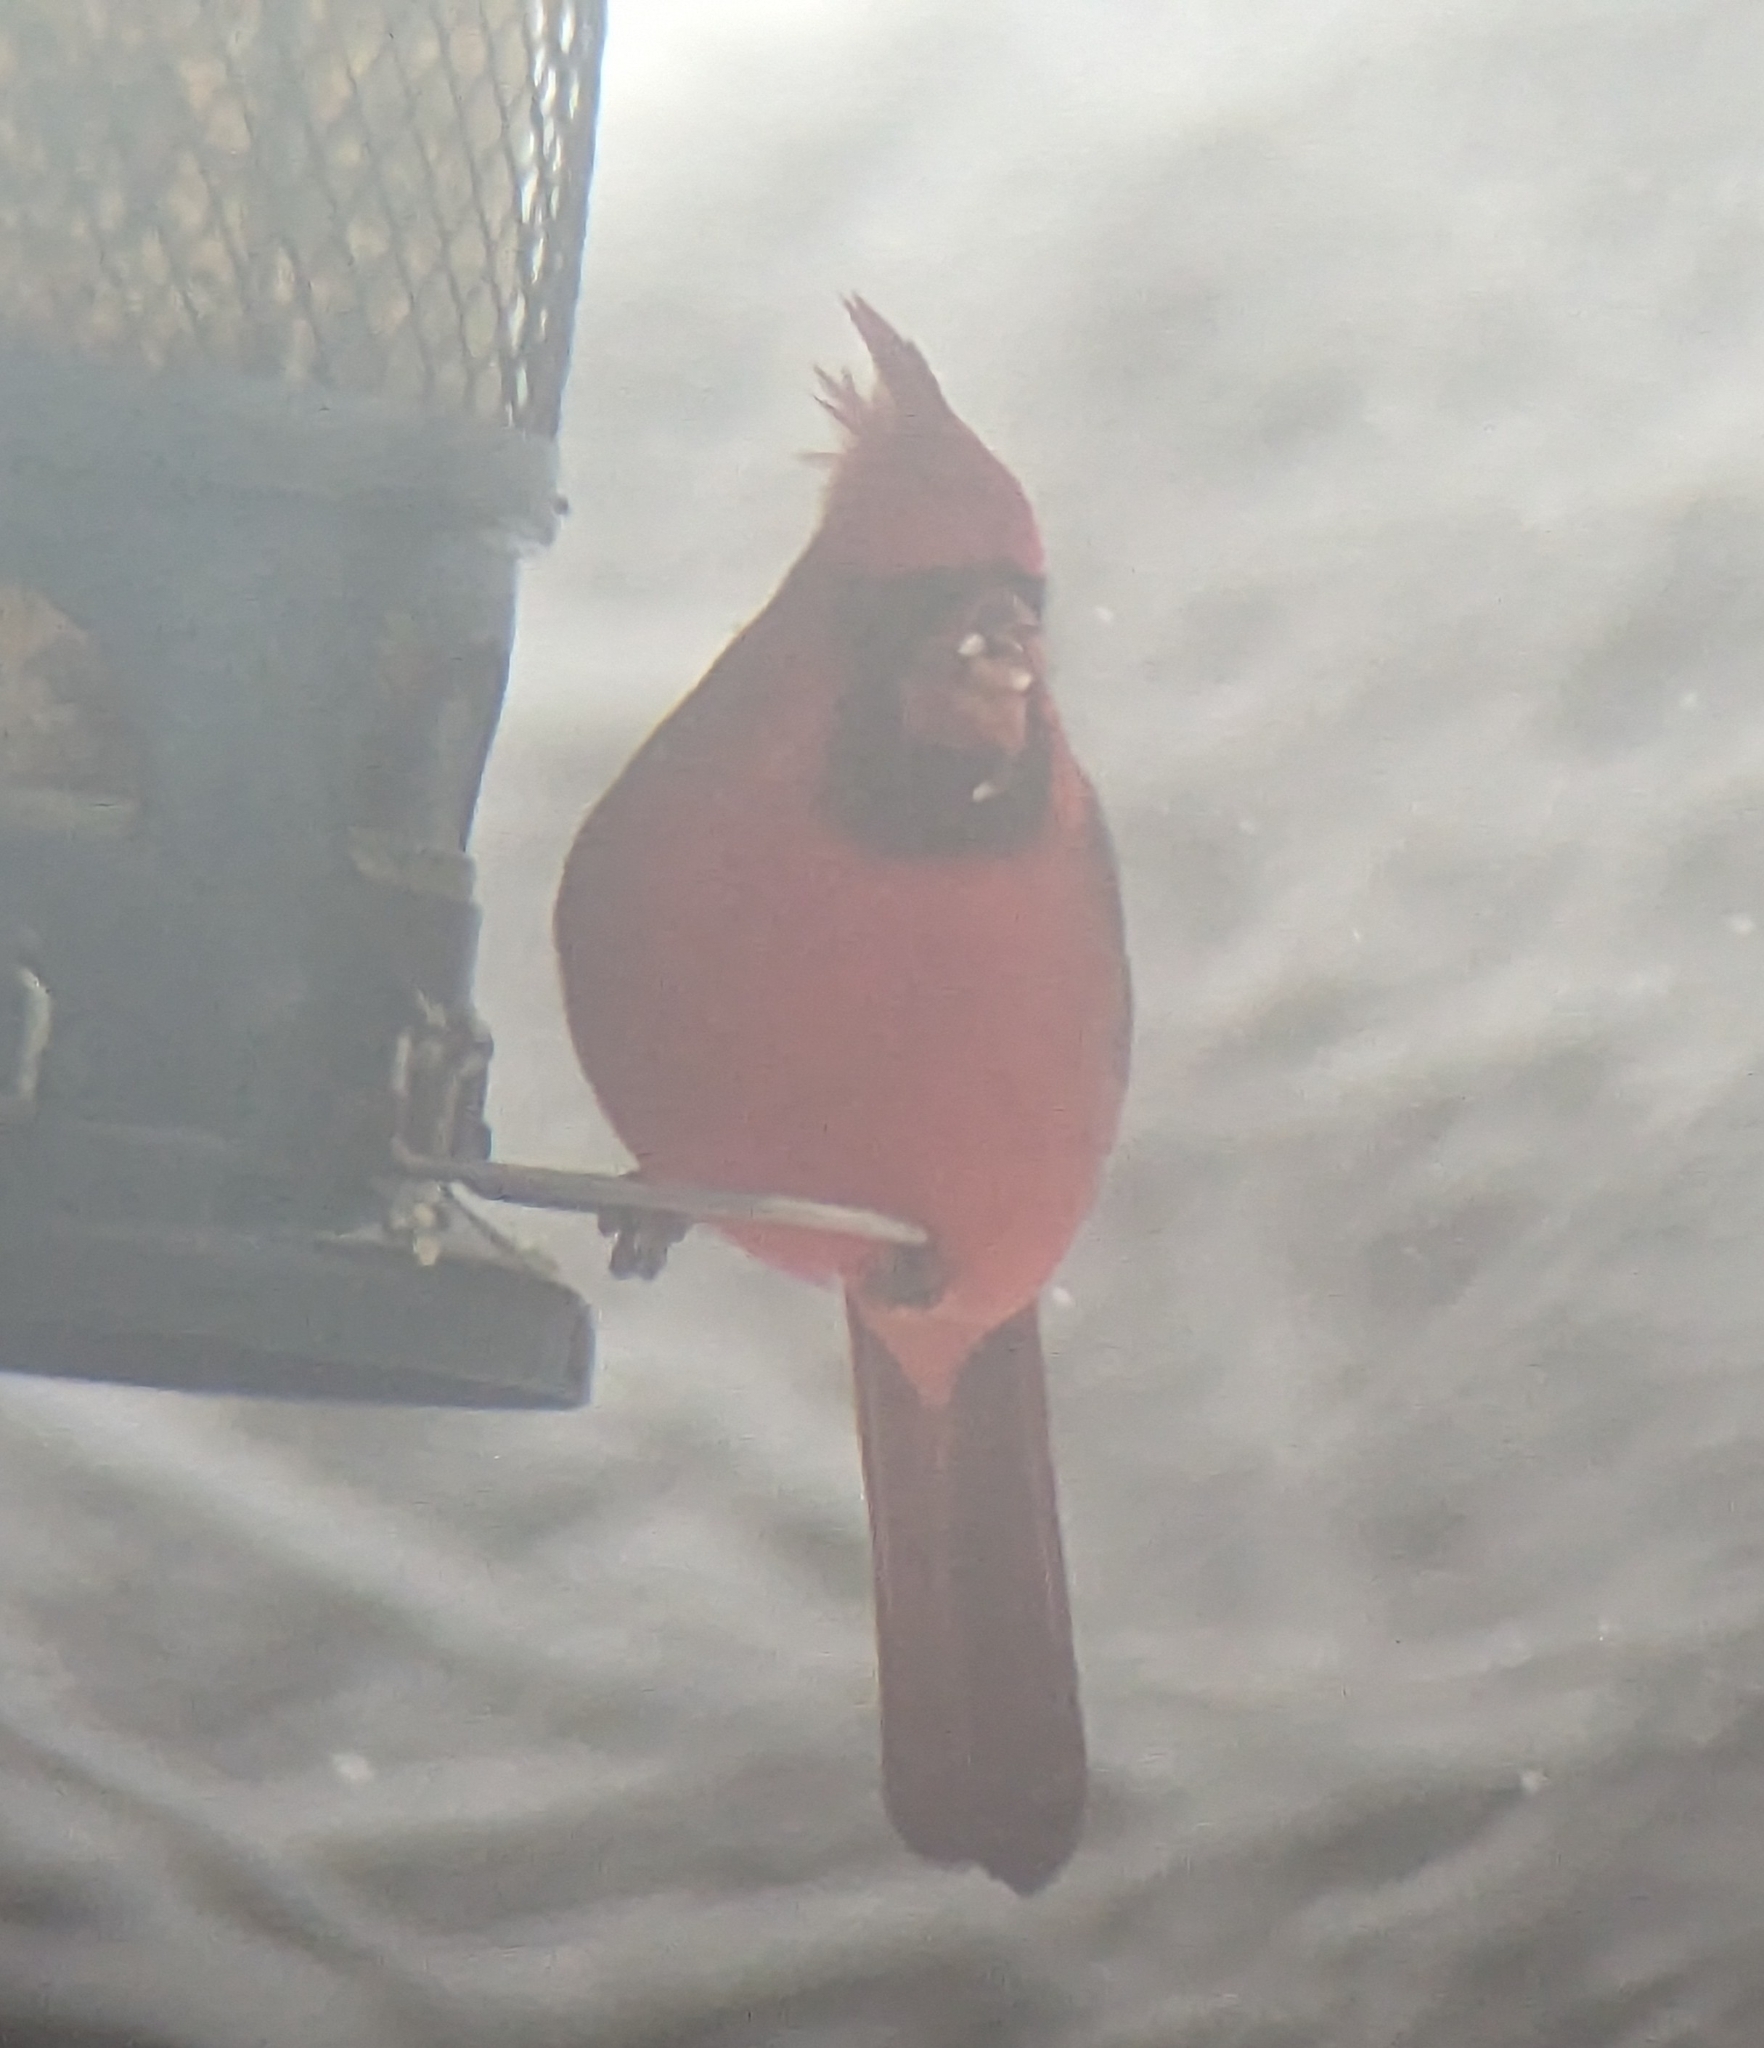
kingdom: Animalia
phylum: Chordata
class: Aves
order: Passeriformes
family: Cardinalidae
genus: Cardinalis
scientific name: Cardinalis cardinalis
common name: Northern cardinal
